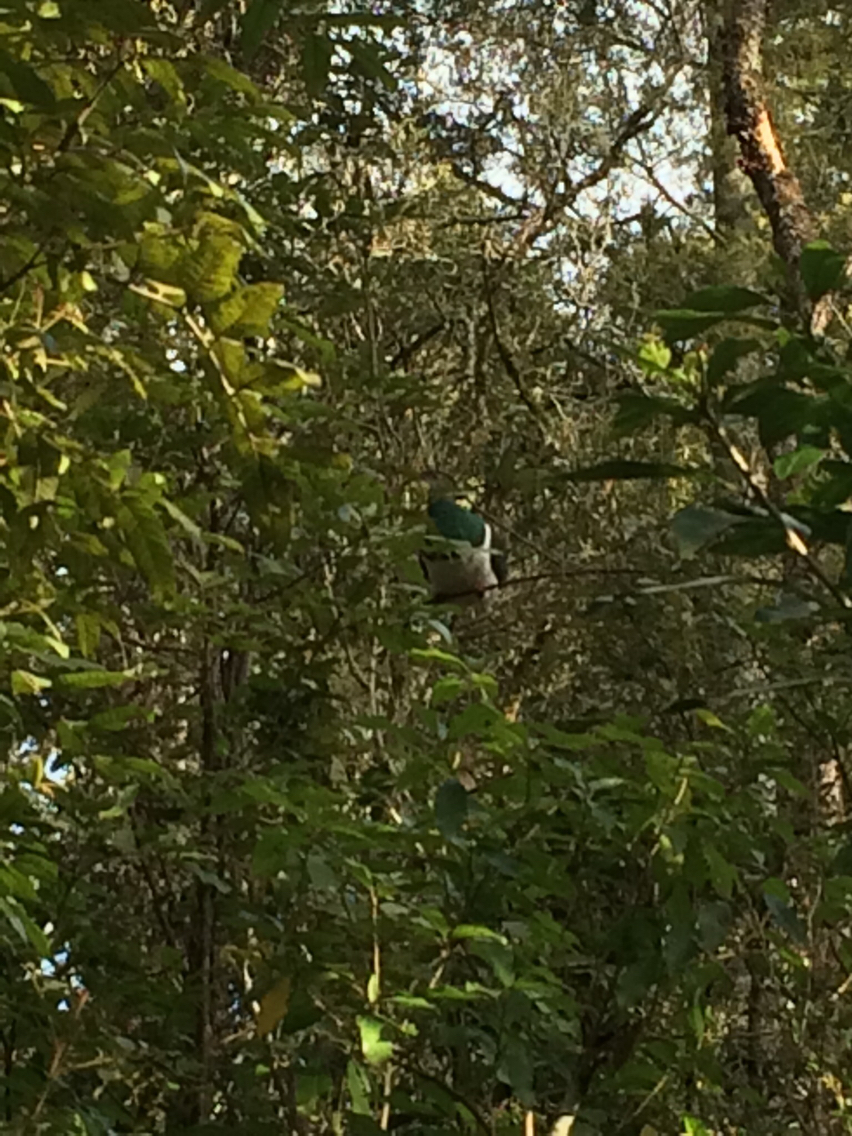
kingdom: Animalia
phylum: Chordata
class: Aves
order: Columbiformes
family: Columbidae
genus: Hemiphaga
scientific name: Hemiphaga novaeseelandiae
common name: New zealand pigeon
